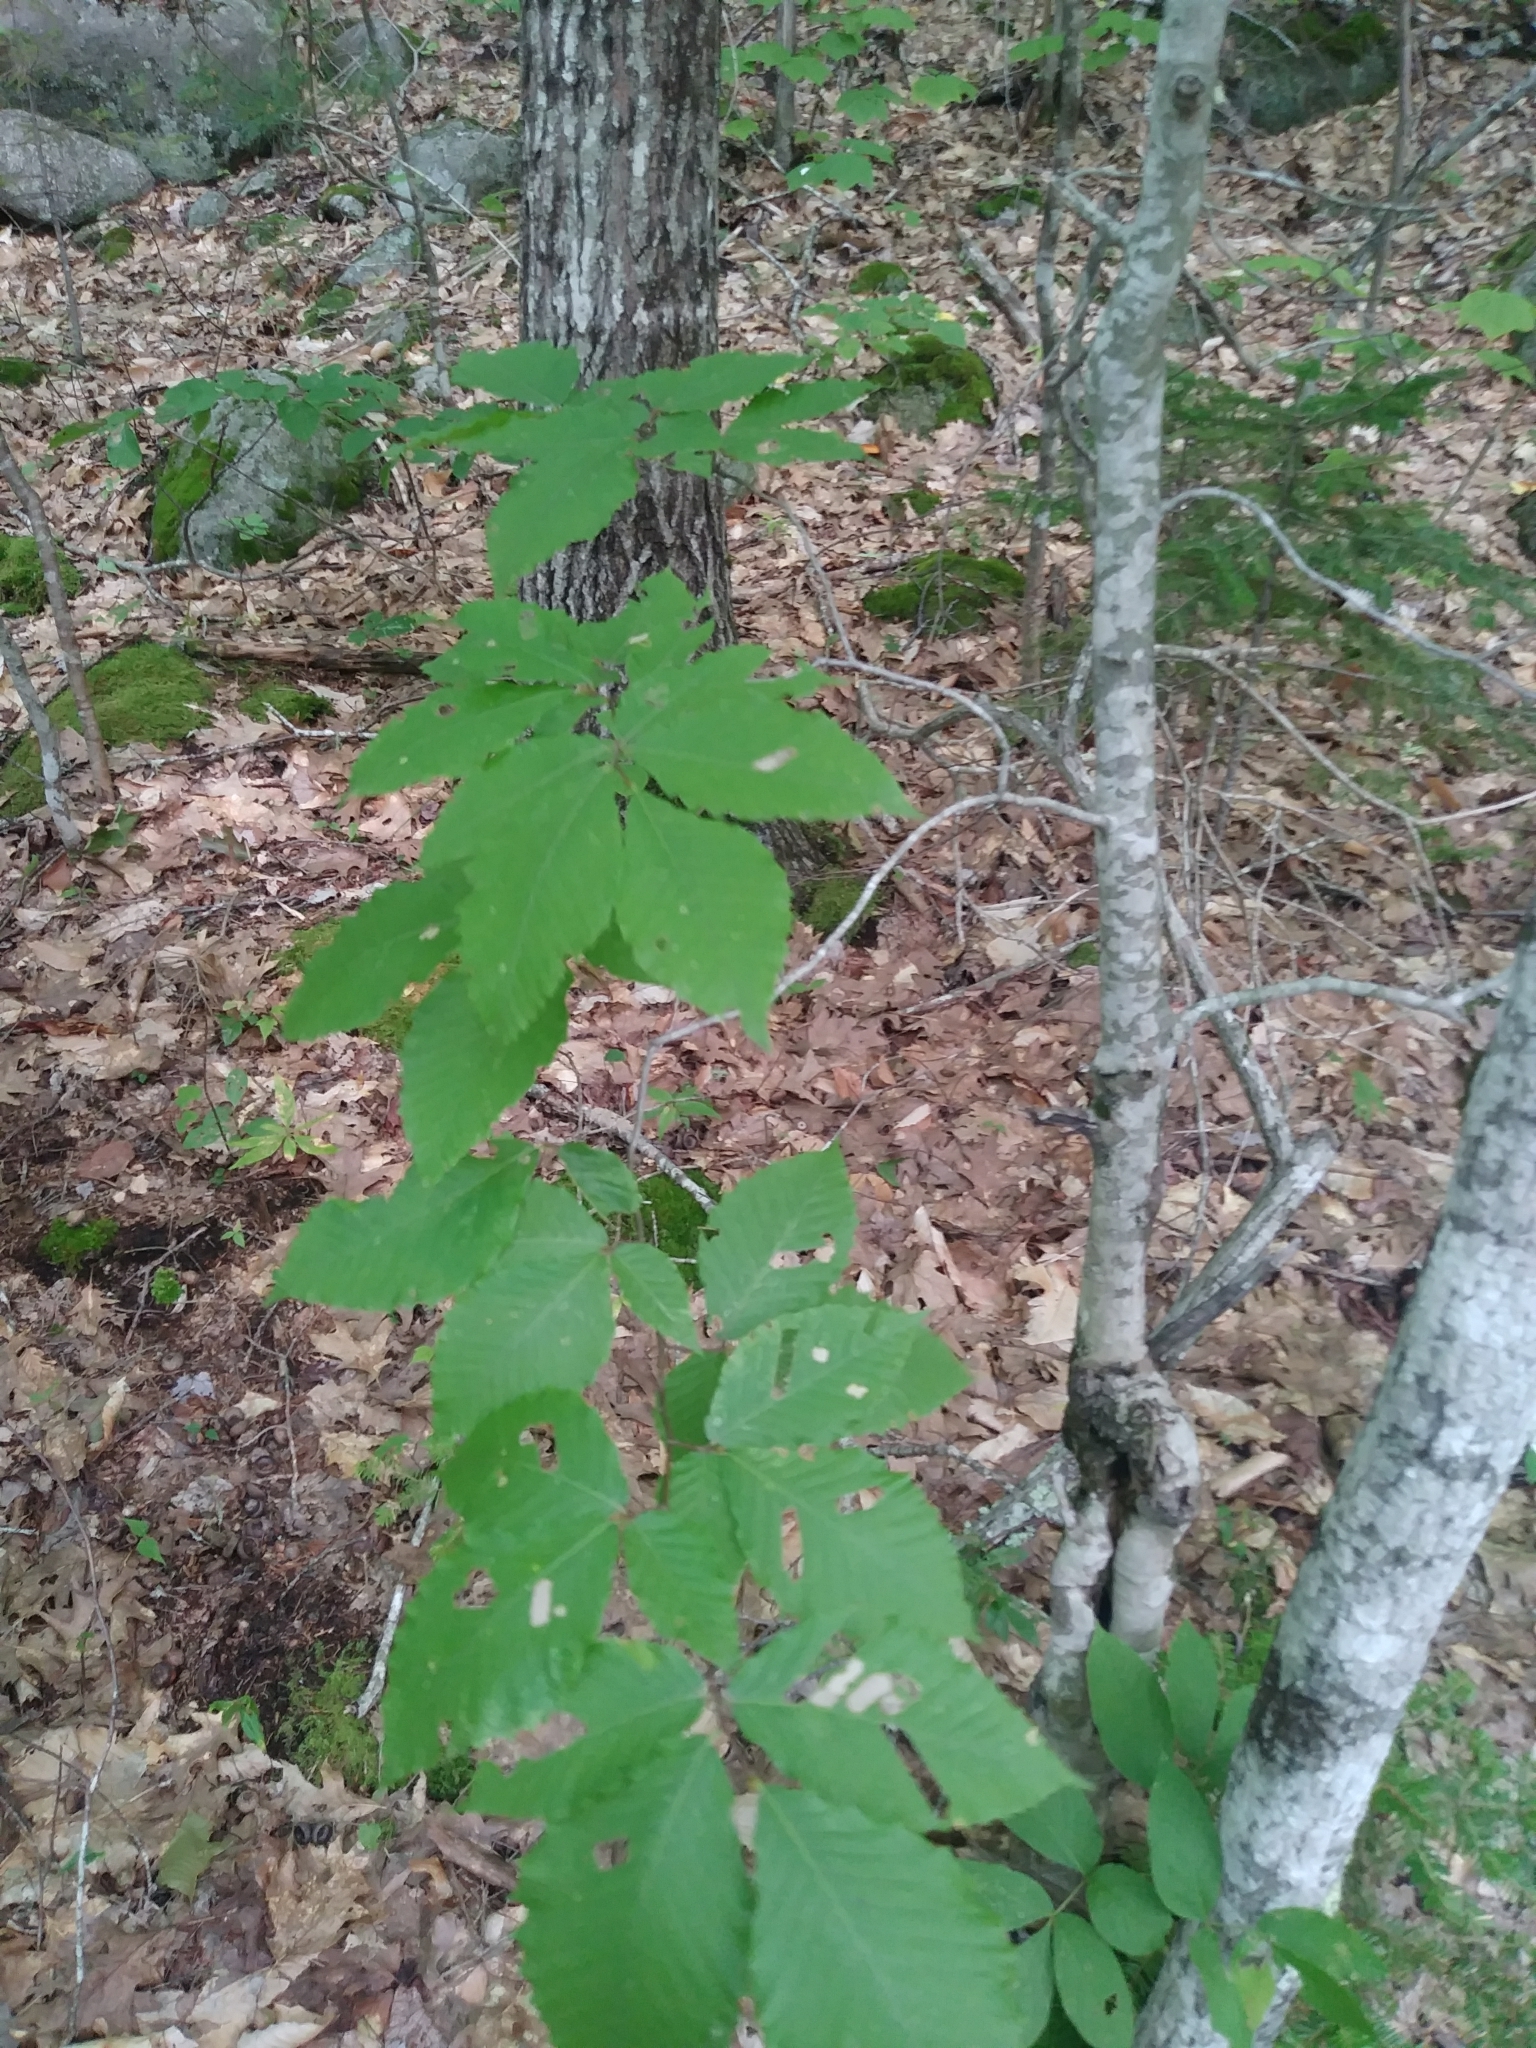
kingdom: Plantae
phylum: Tracheophyta
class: Magnoliopsida
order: Fagales
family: Fagaceae
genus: Fagus
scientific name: Fagus grandifolia
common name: American beech
